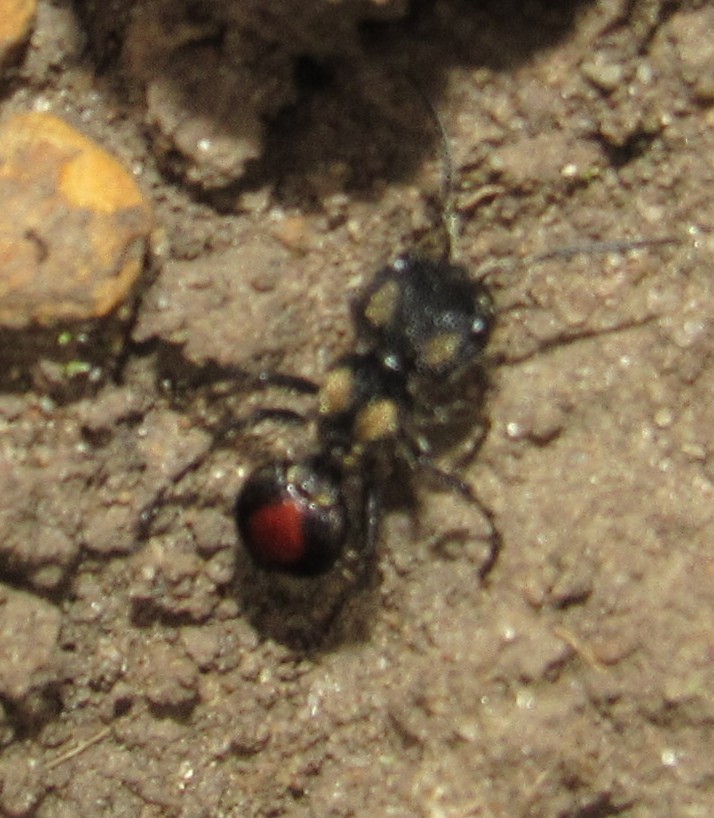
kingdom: Animalia
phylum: Arthropoda
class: Insecta
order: Hymenoptera
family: Mutillidae
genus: Hoplocrates
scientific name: Hoplocrates
